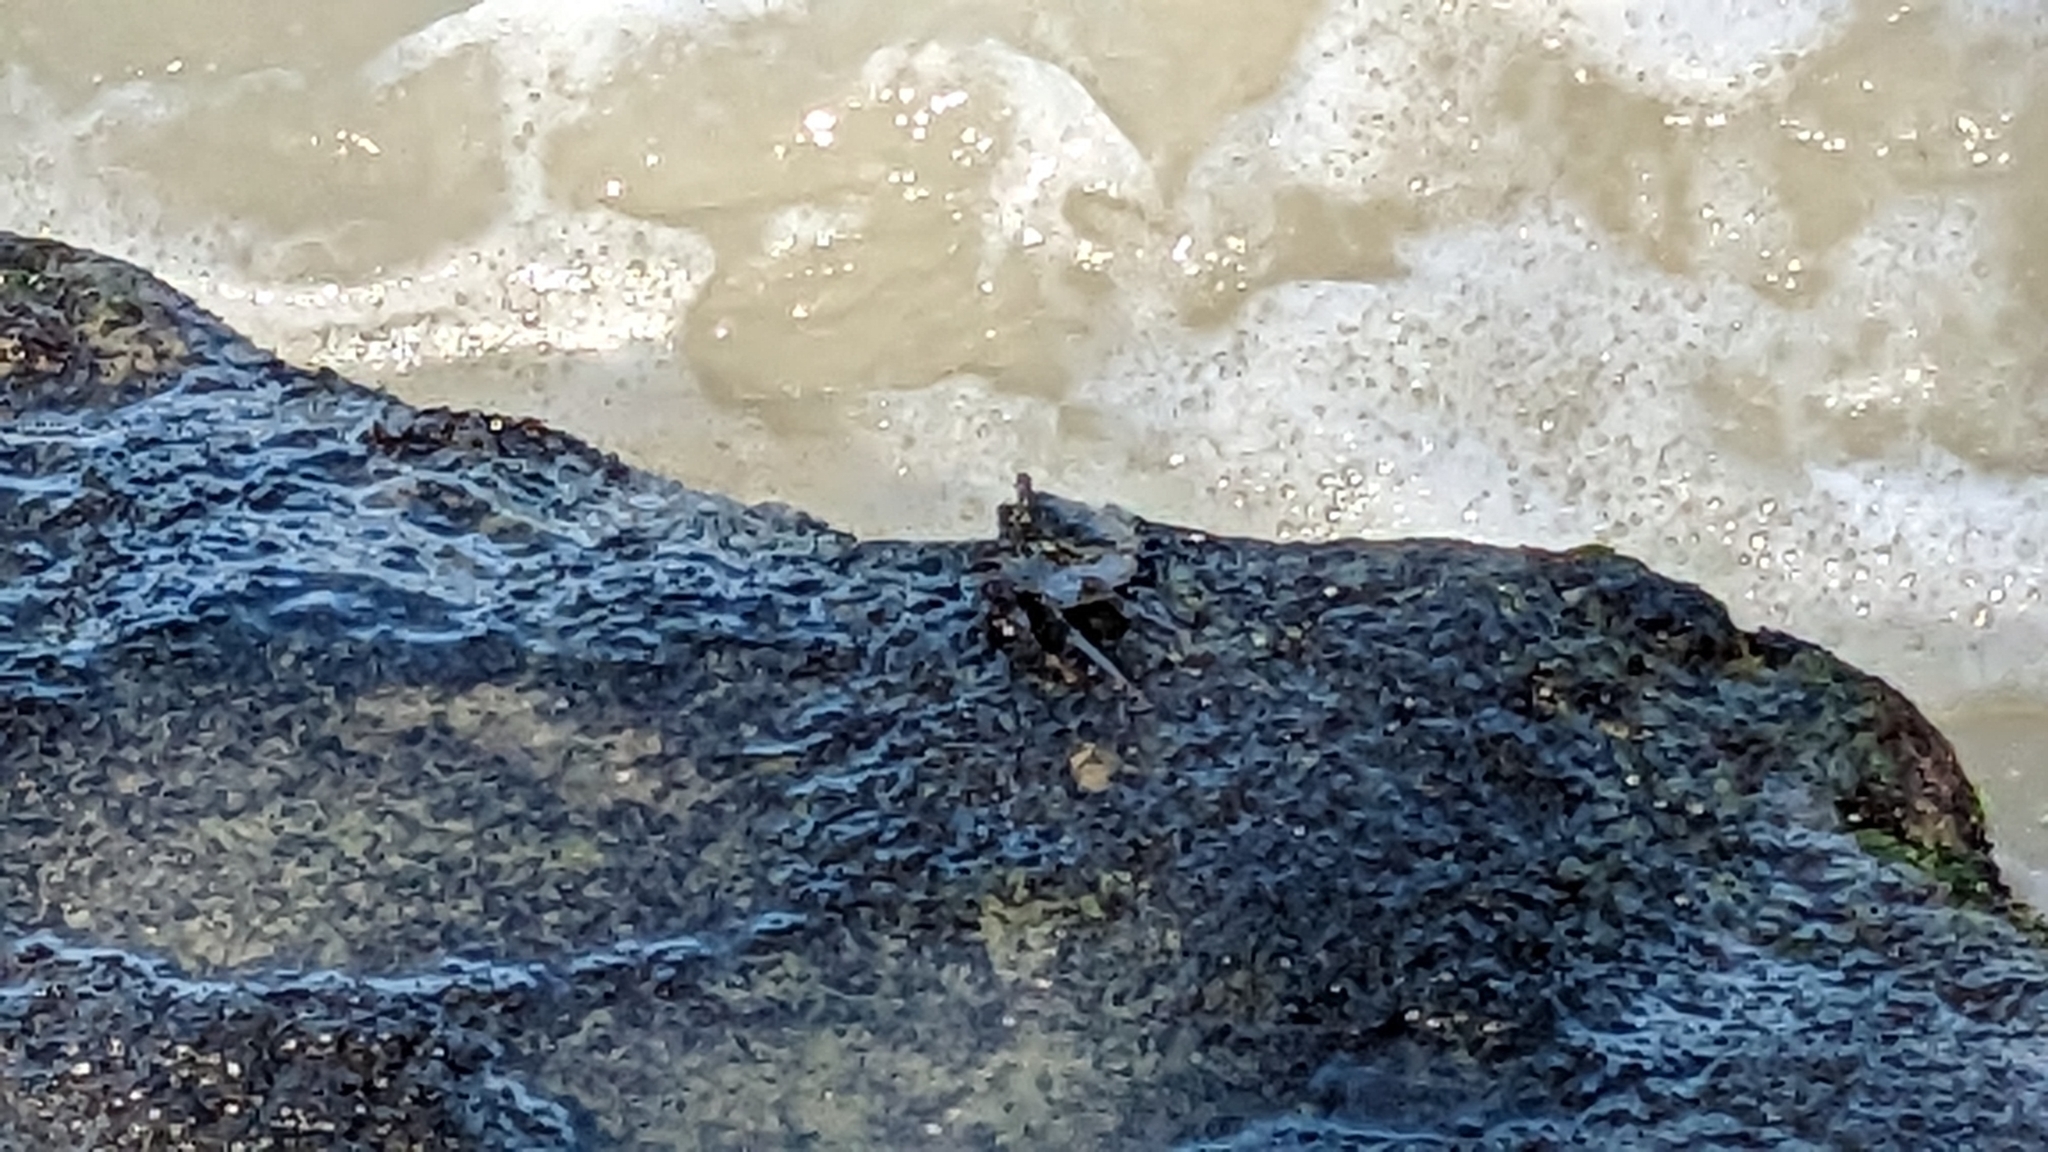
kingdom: Animalia
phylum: Arthropoda
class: Malacostraca
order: Decapoda
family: Grapsidae
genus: Grapsus
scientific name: Grapsus tenuicrustatus
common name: Natal lightfoot crab
